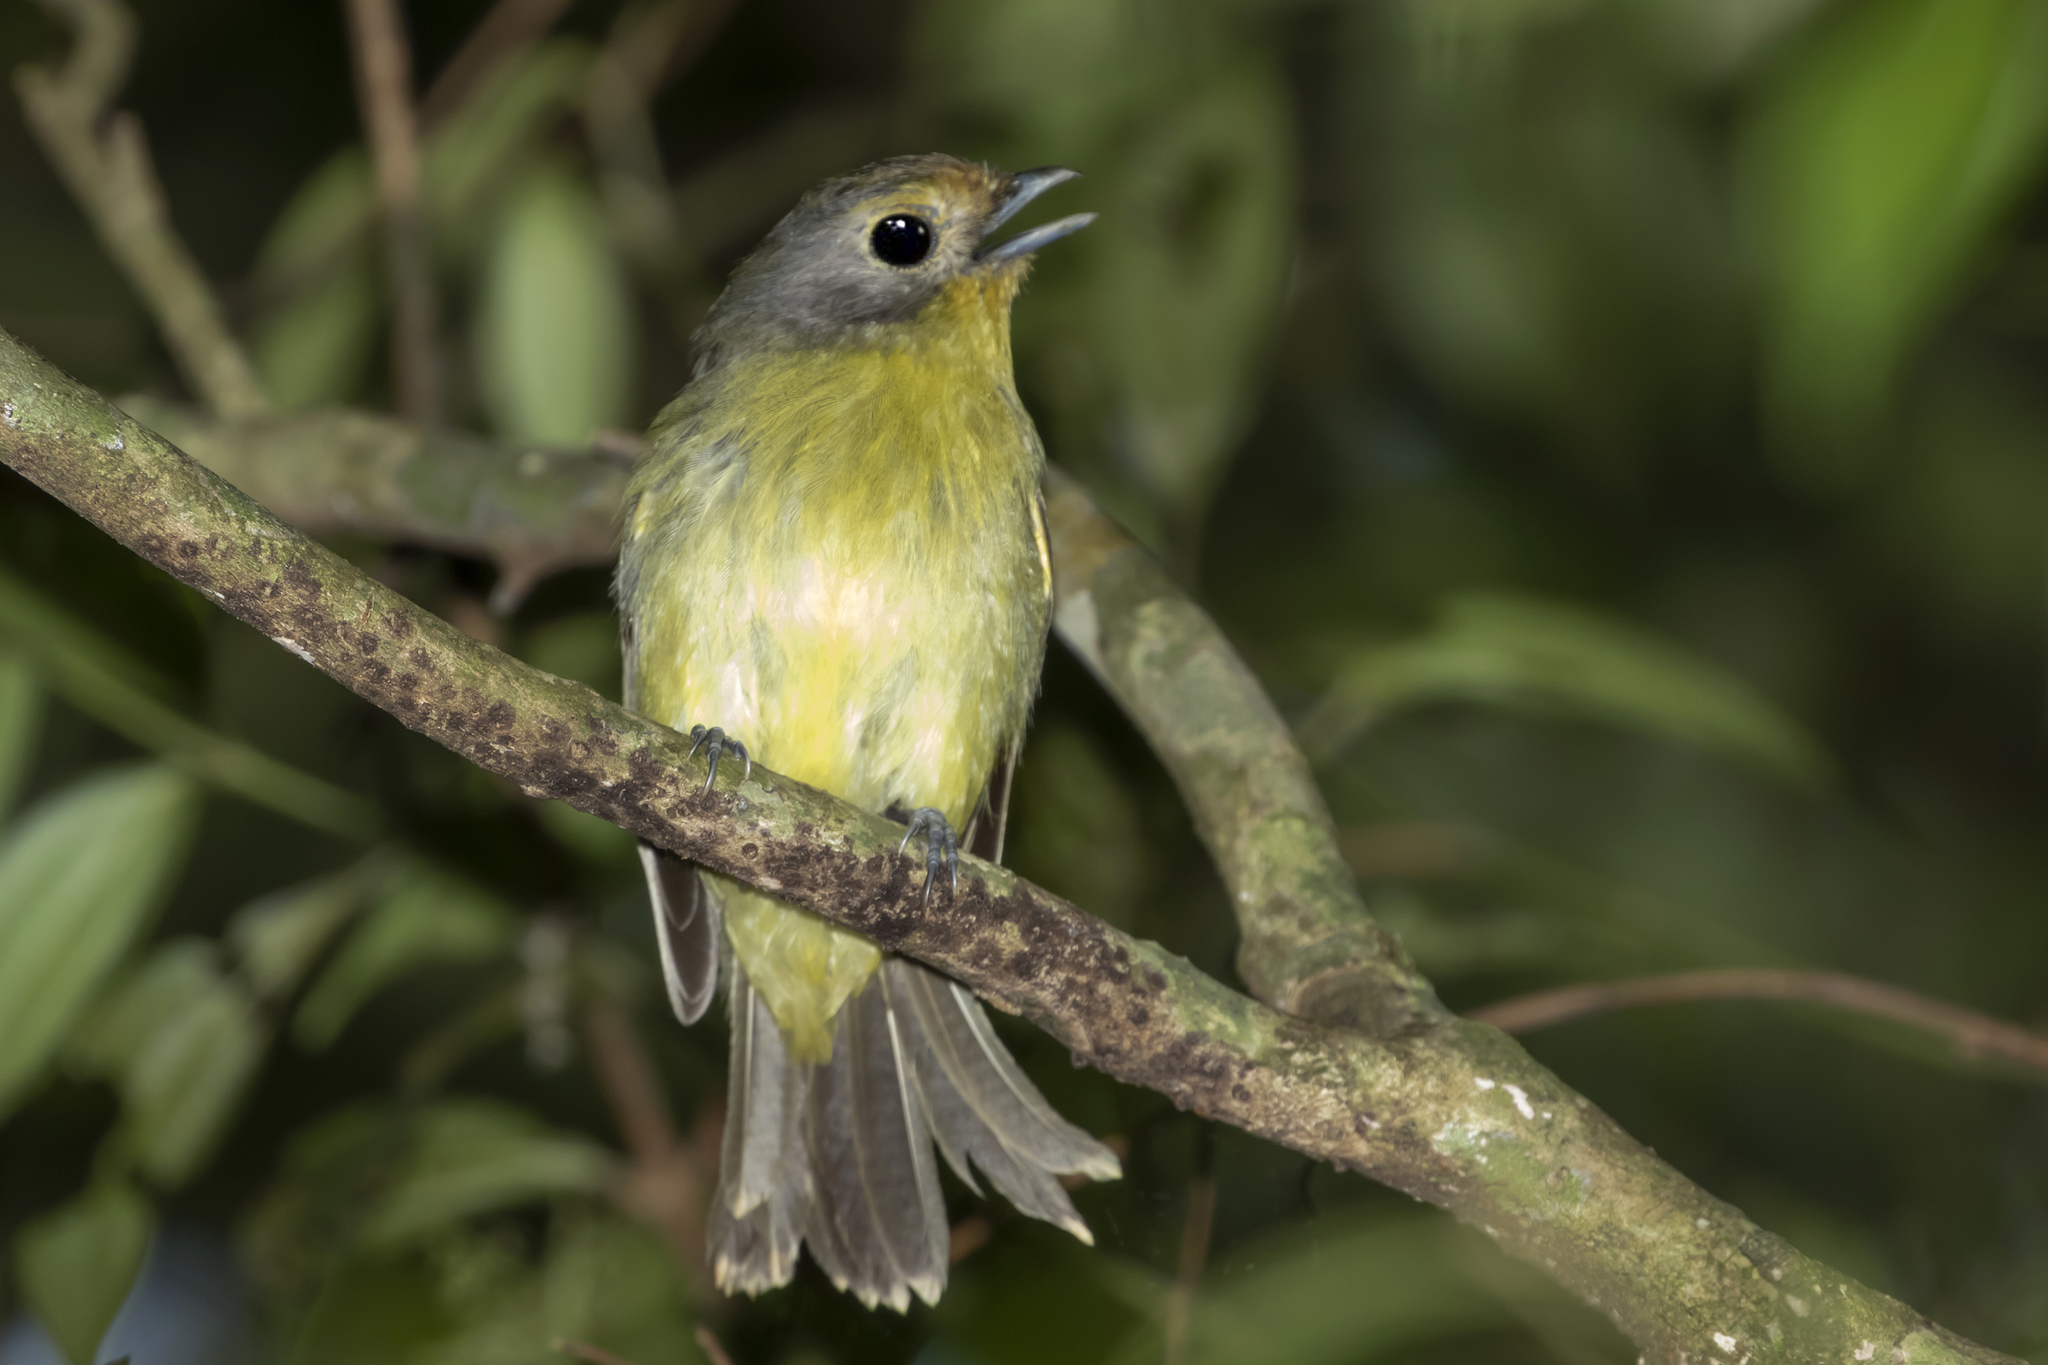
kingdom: Animalia
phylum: Chordata
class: Aves
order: Passeriformes
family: Cotingidae
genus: Piprites
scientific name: Piprites chloris
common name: Wing-barred piprites
